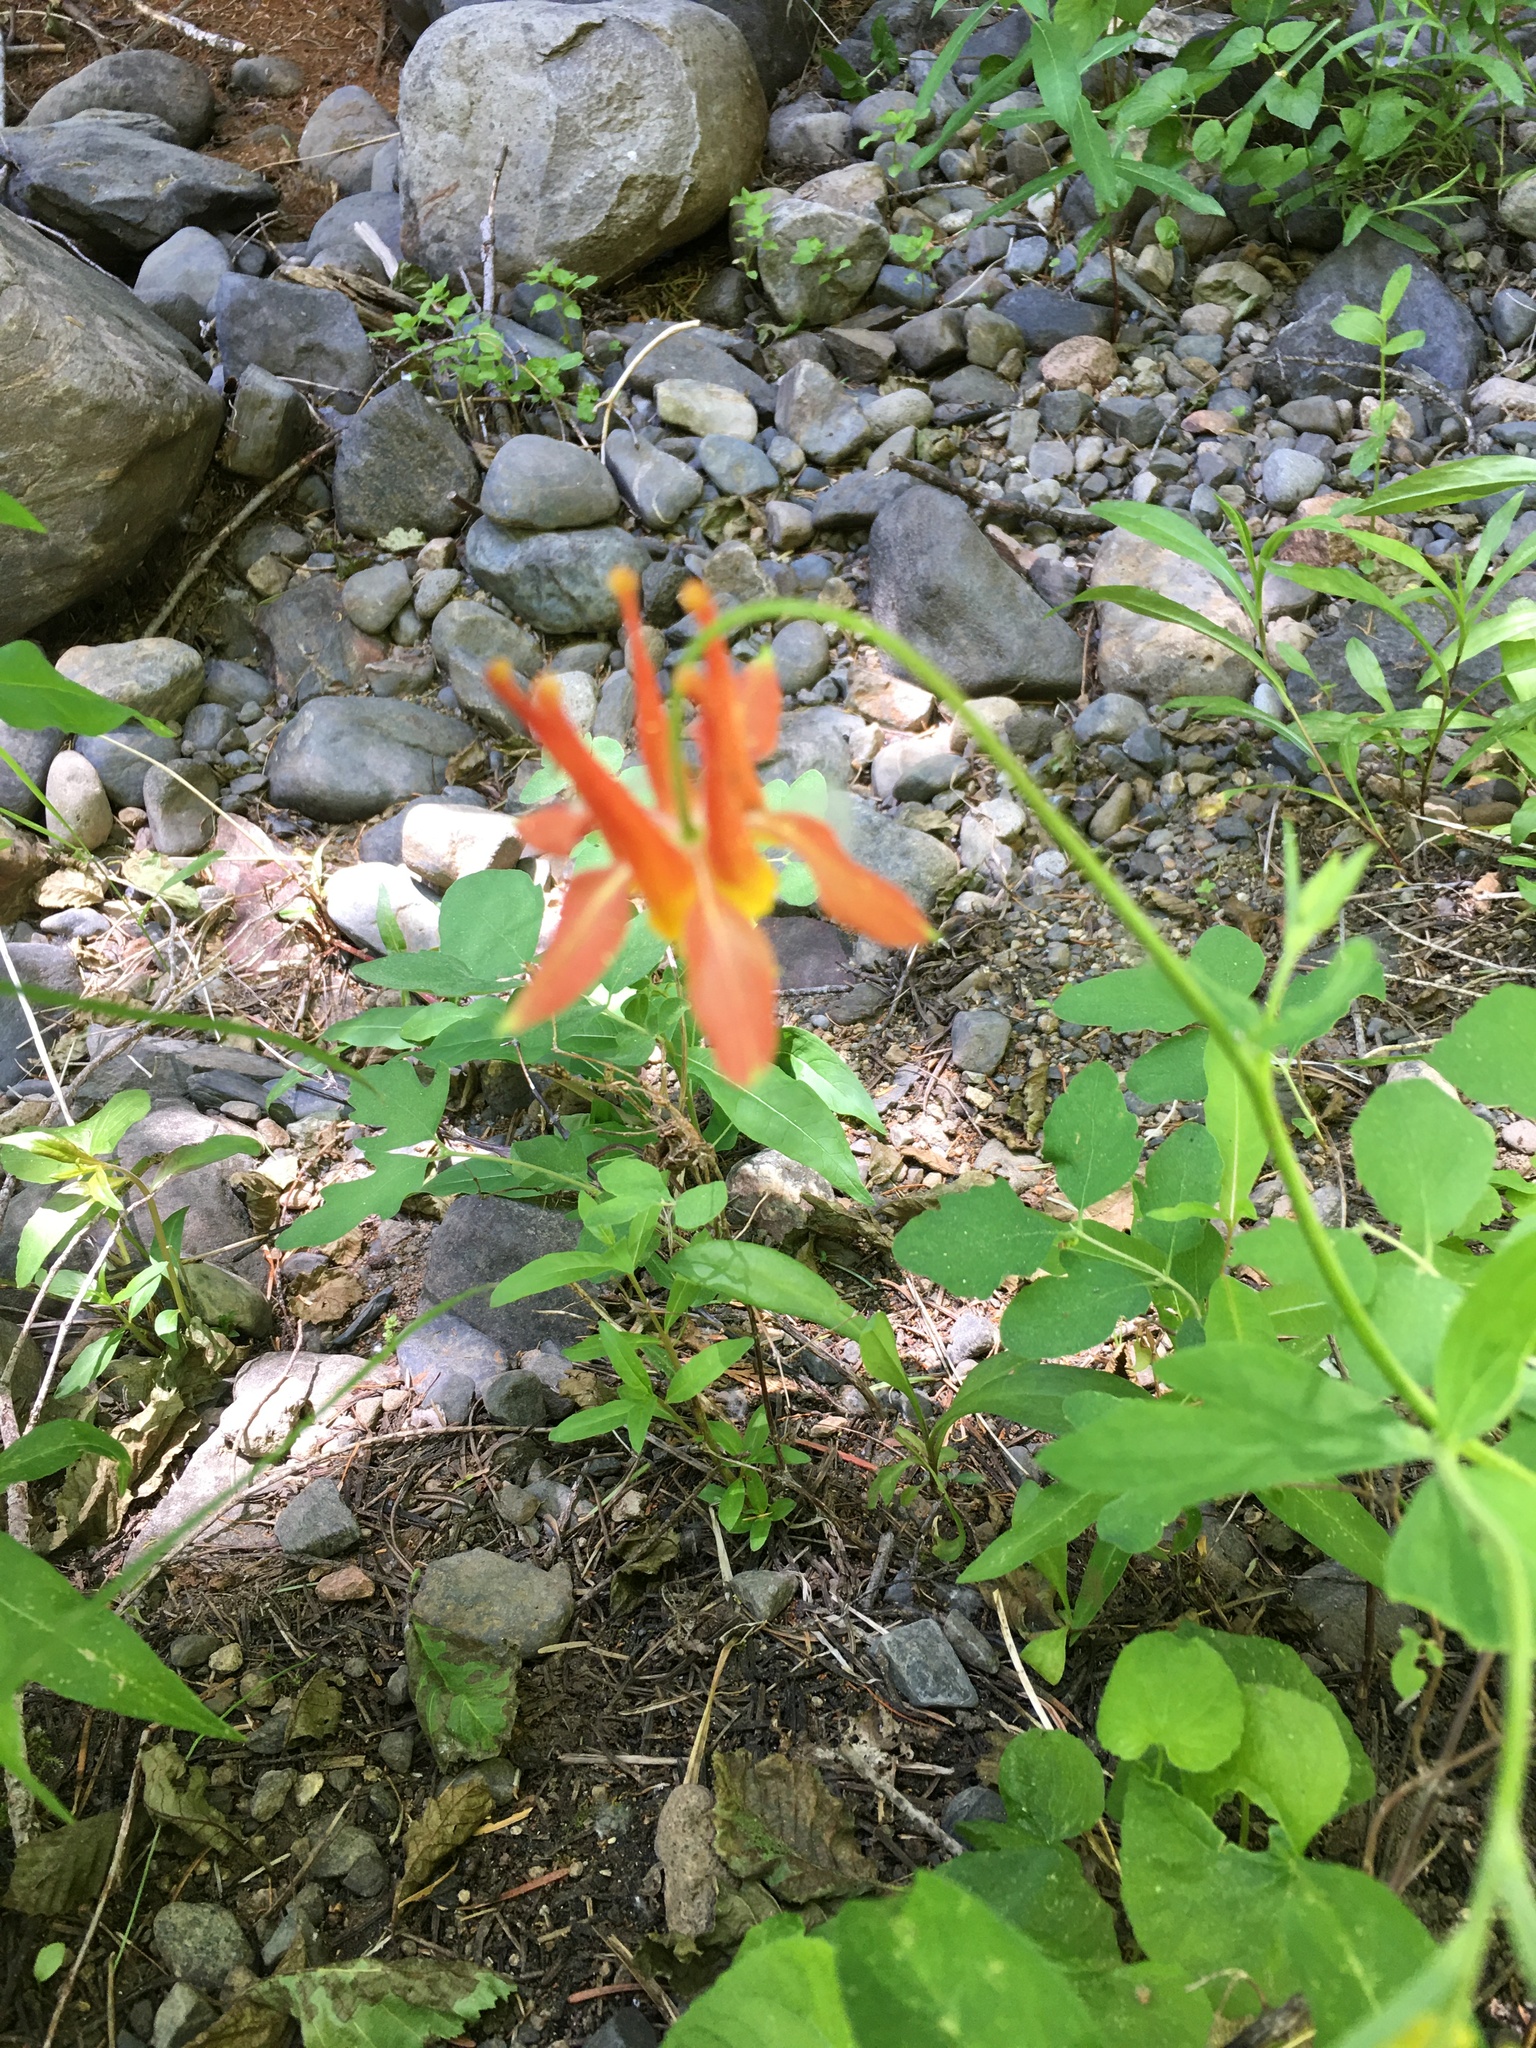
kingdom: Plantae
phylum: Tracheophyta
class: Magnoliopsida
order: Ranunculales
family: Ranunculaceae
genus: Aquilegia
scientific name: Aquilegia formosa
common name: Sitka columbine
